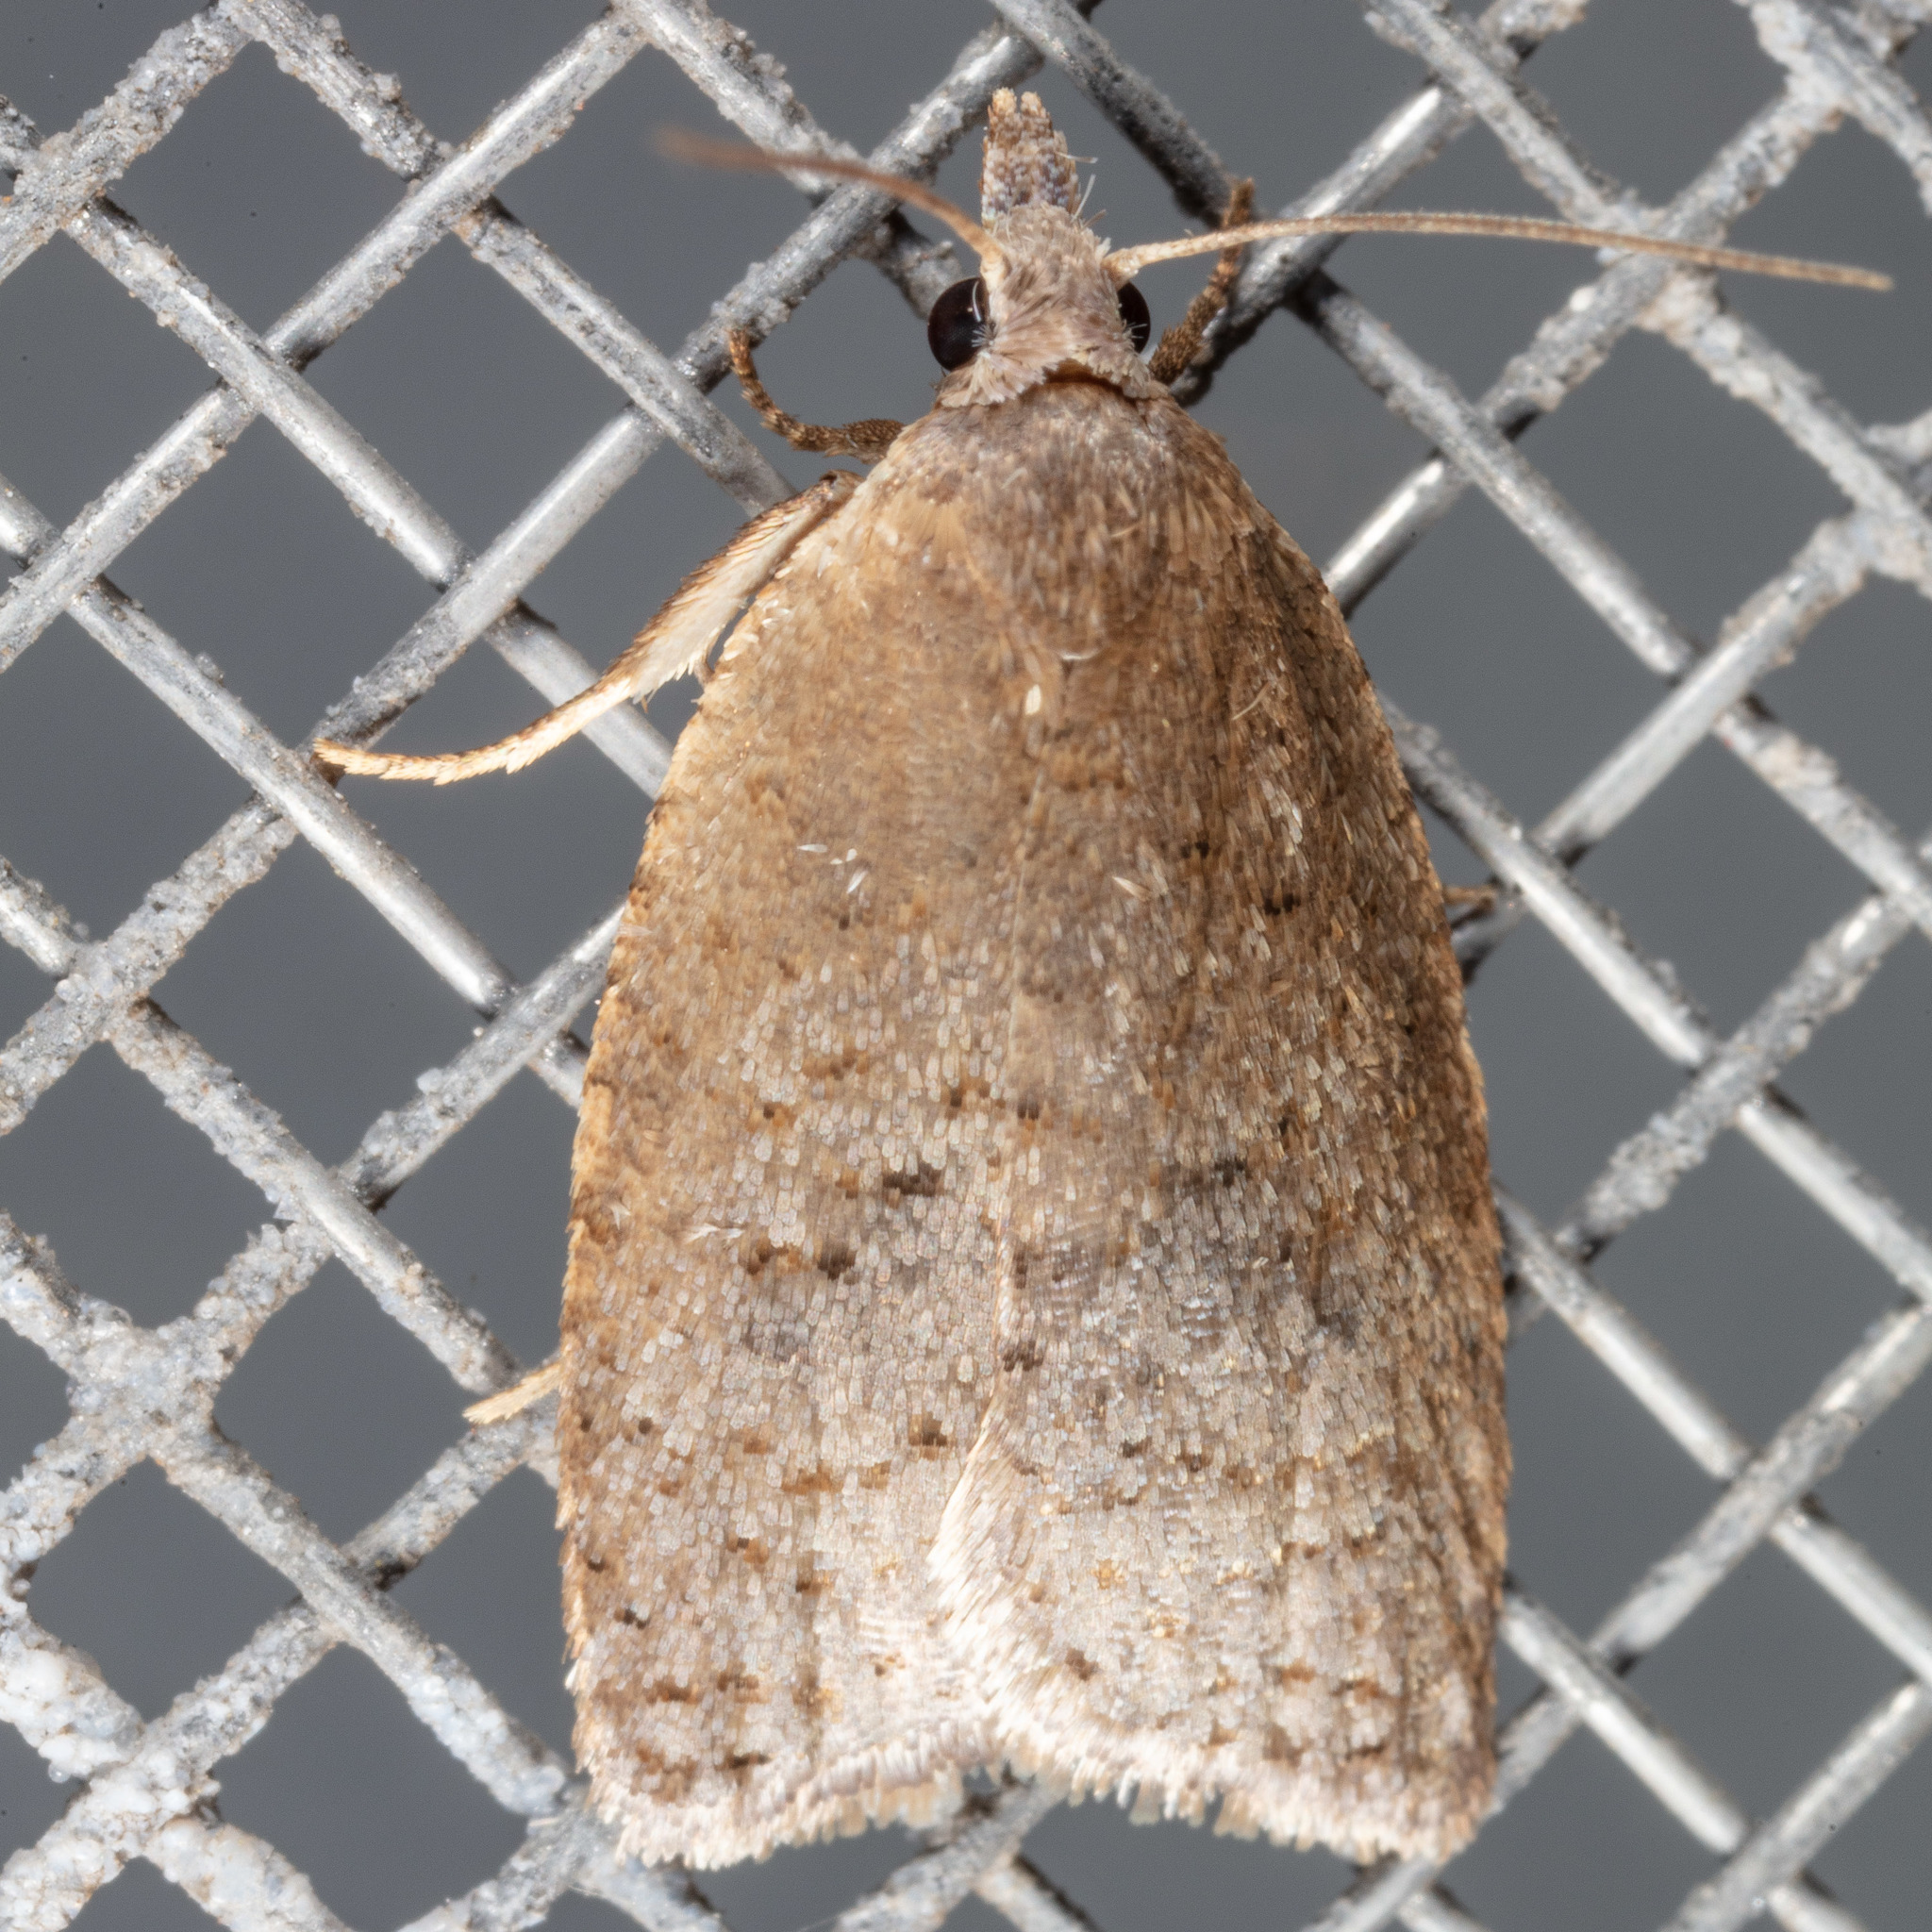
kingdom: Animalia
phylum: Arthropoda
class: Insecta
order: Lepidoptera
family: Tortricidae
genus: Sparganothoides
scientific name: Sparganothoides lentiginosana
